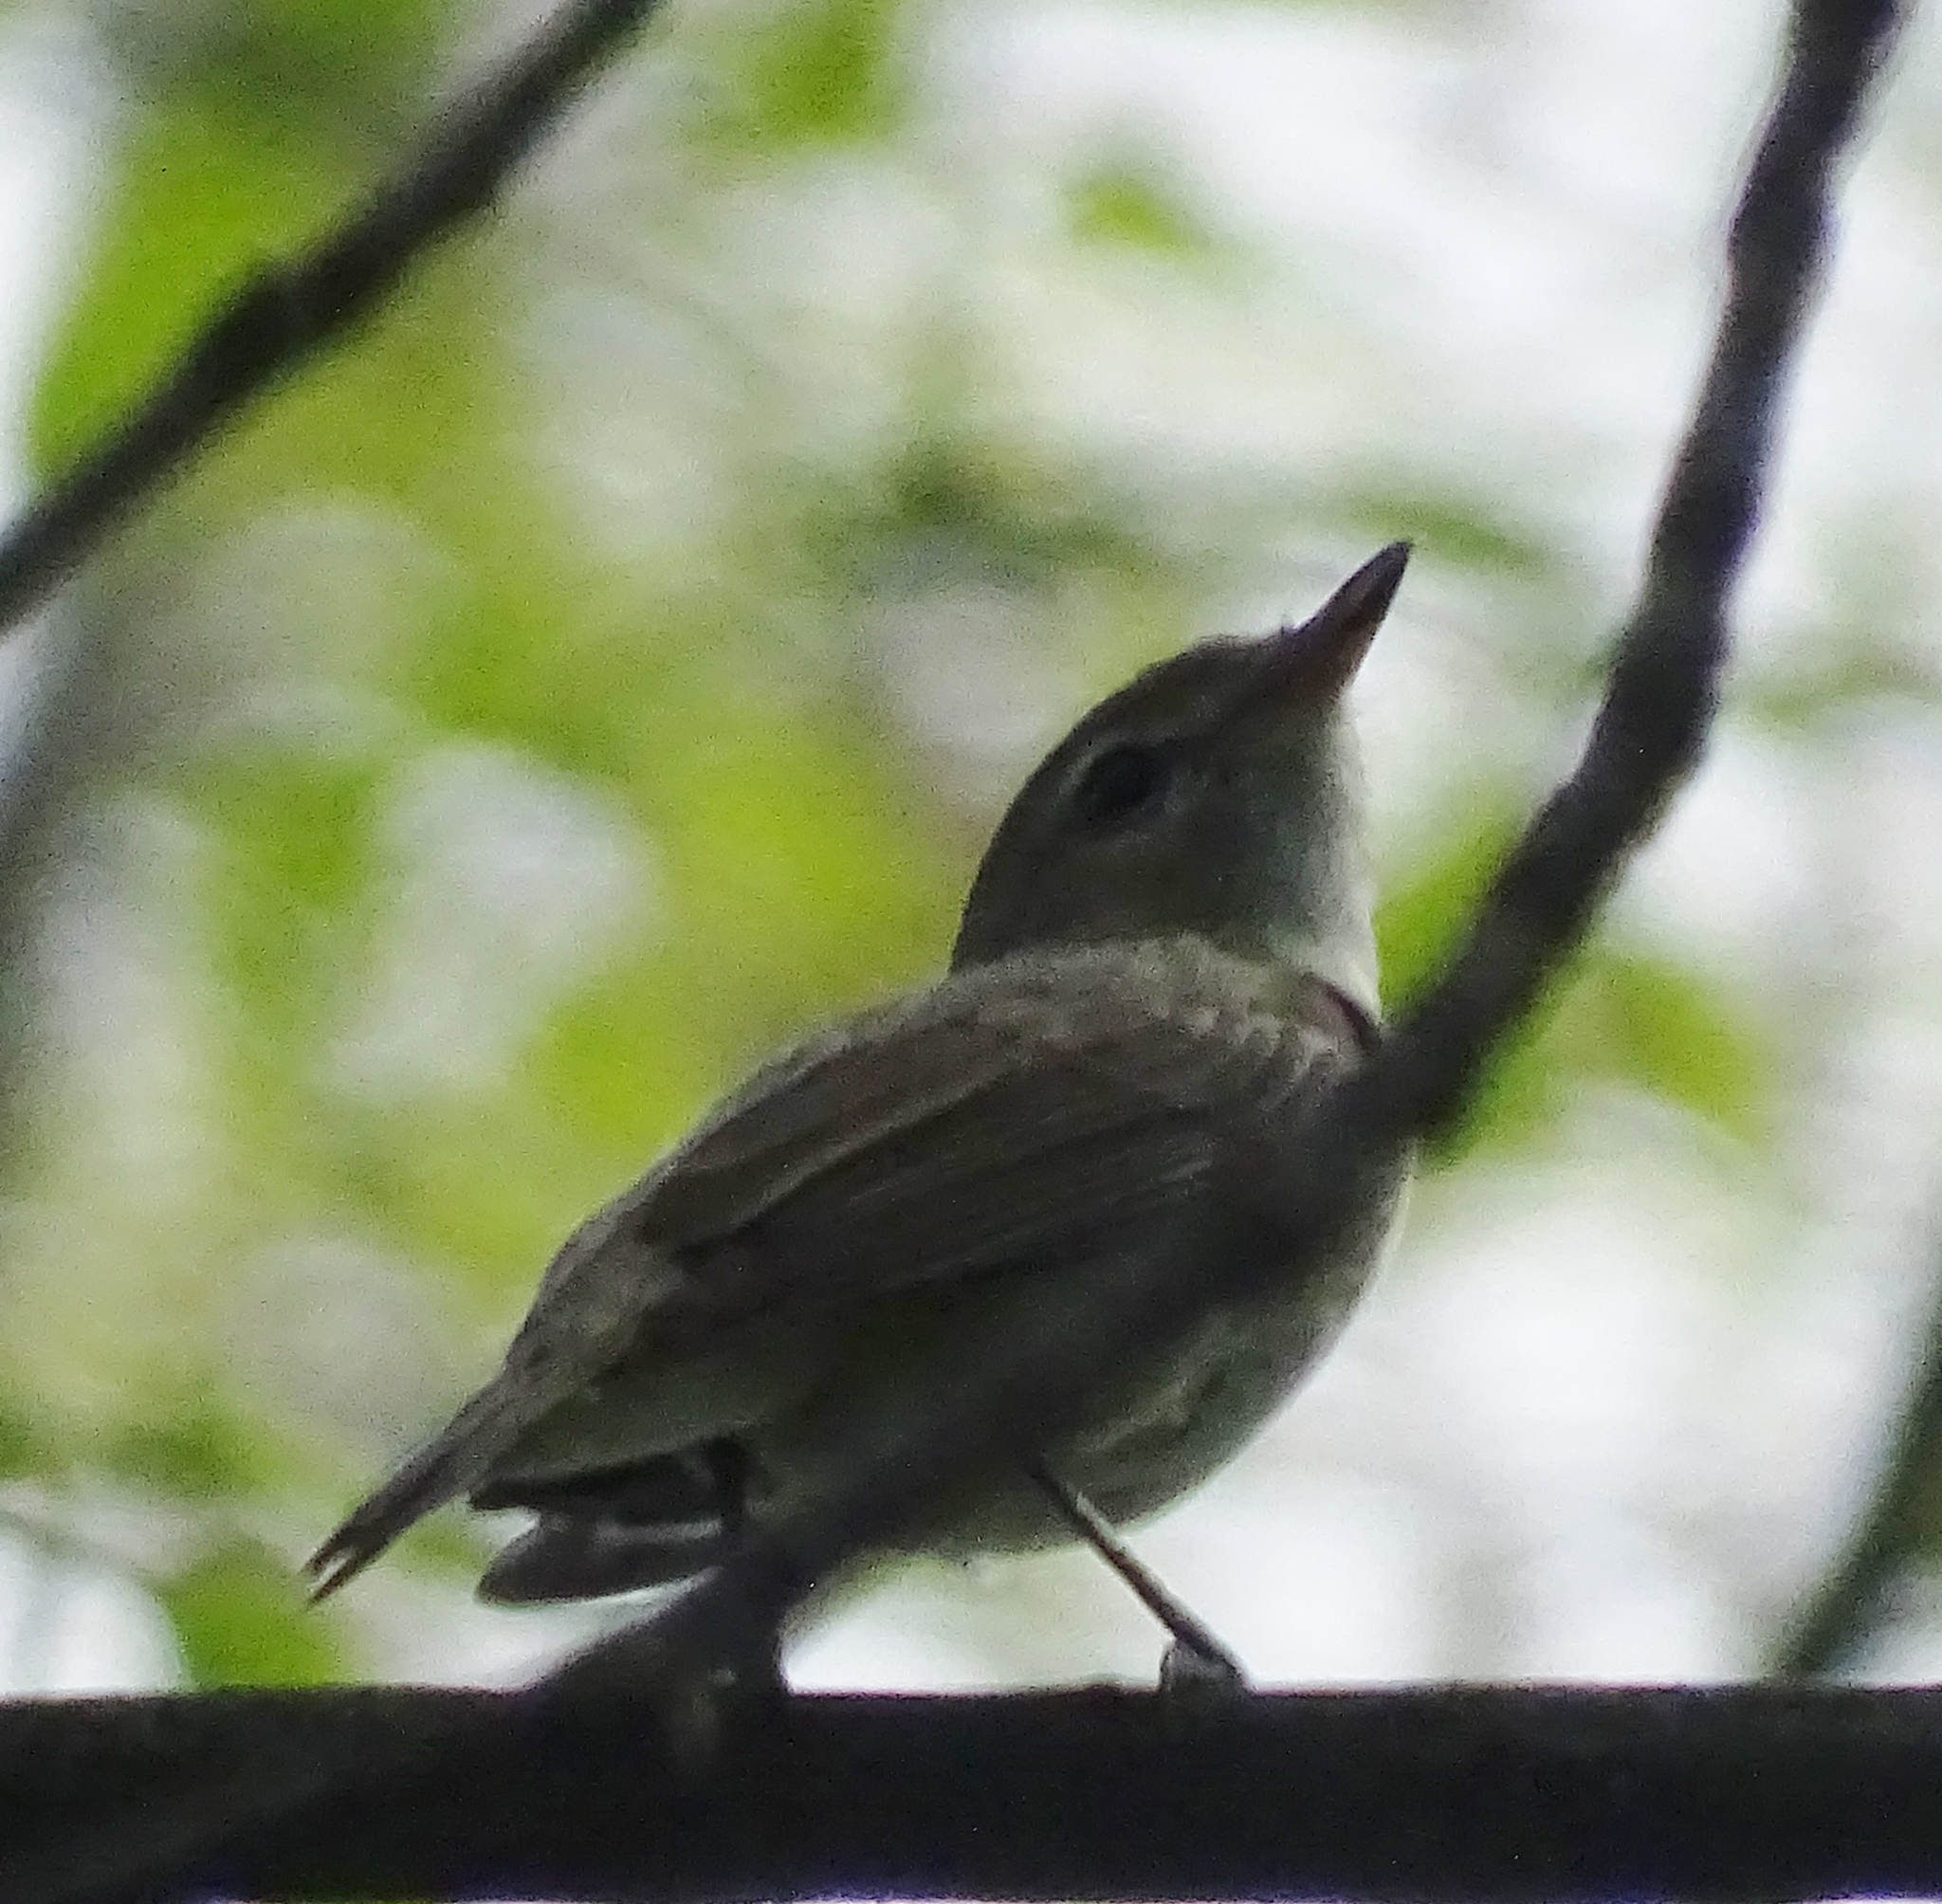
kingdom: Animalia
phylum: Chordata
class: Aves
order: Passeriformes
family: Vireonidae
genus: Vireo
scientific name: Vireo gilvus
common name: Warbling vireo
